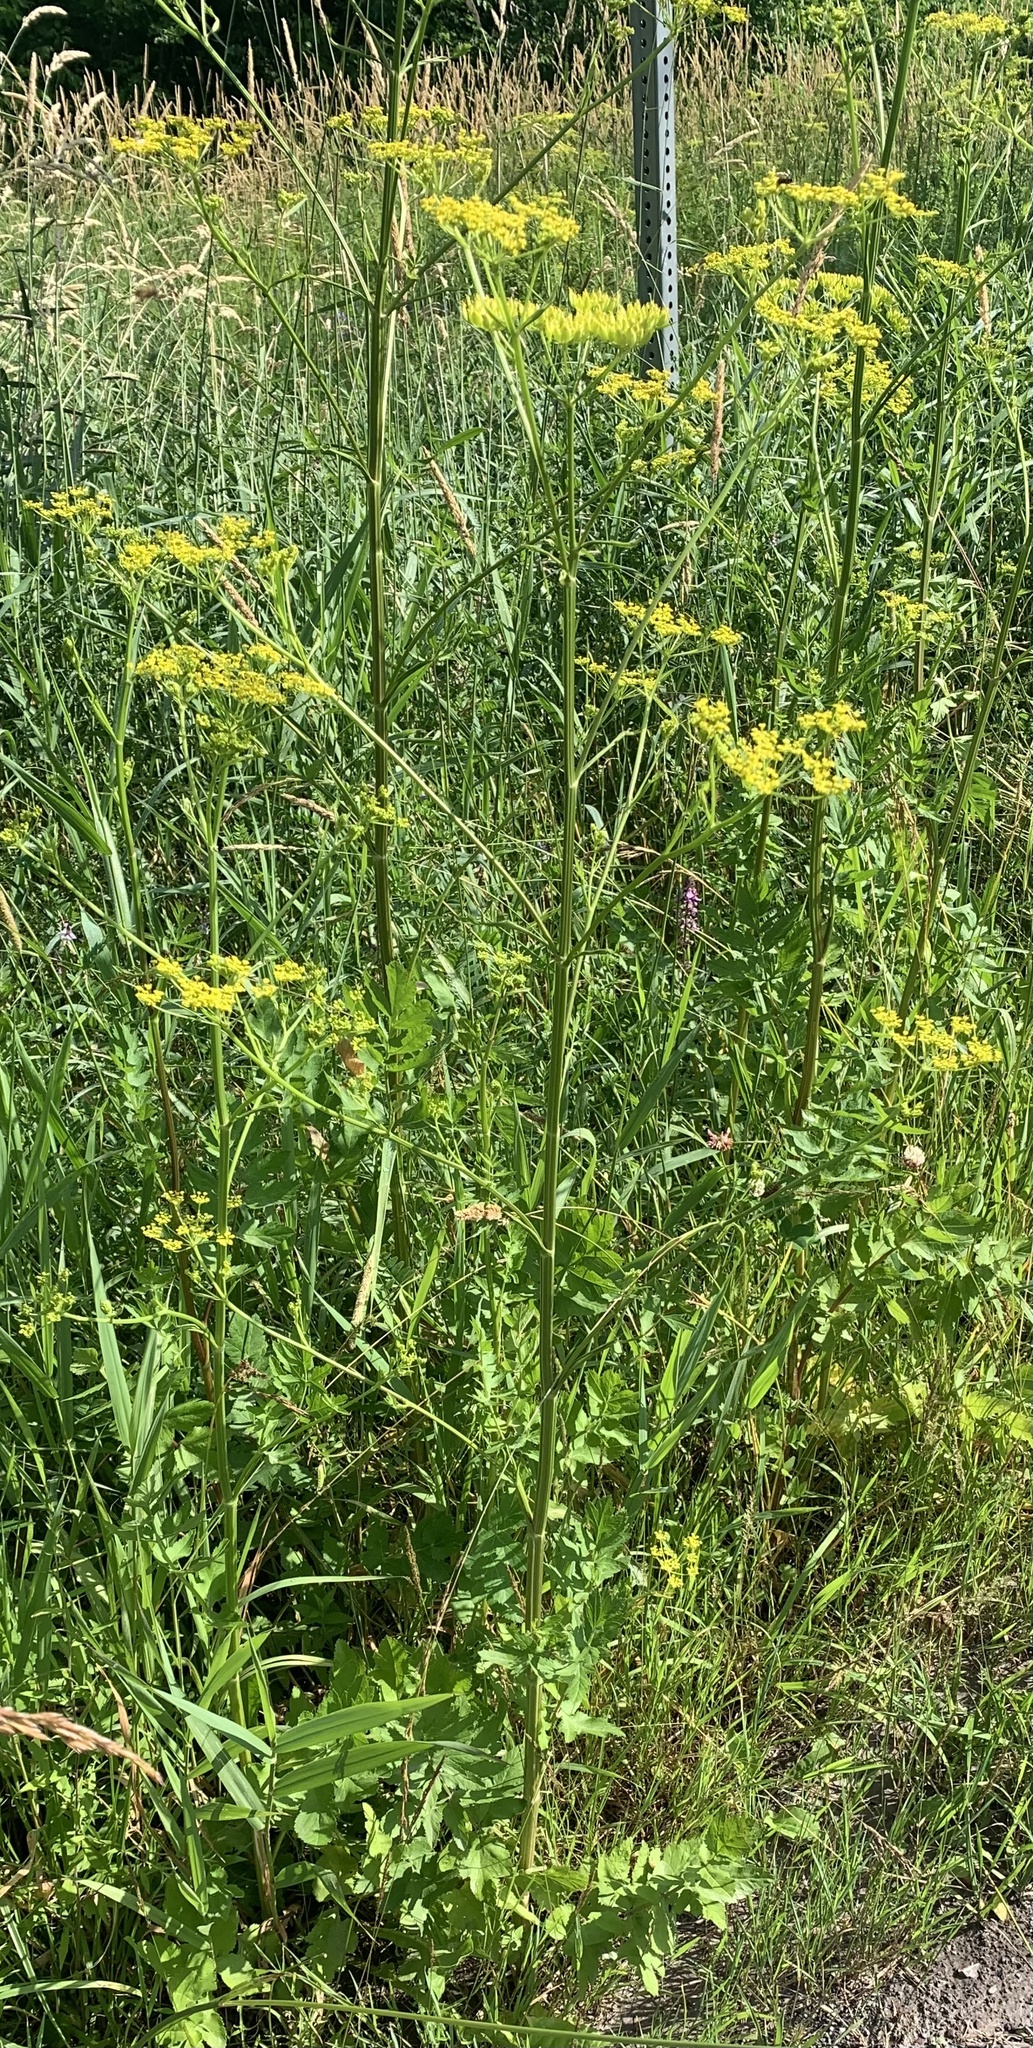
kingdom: Plantae
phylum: Tracheophyta
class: Magnoliopsida
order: Apiales
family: Apiaceae
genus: Pastinaca
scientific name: Pastinaca sativa
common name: Wild parsnip
